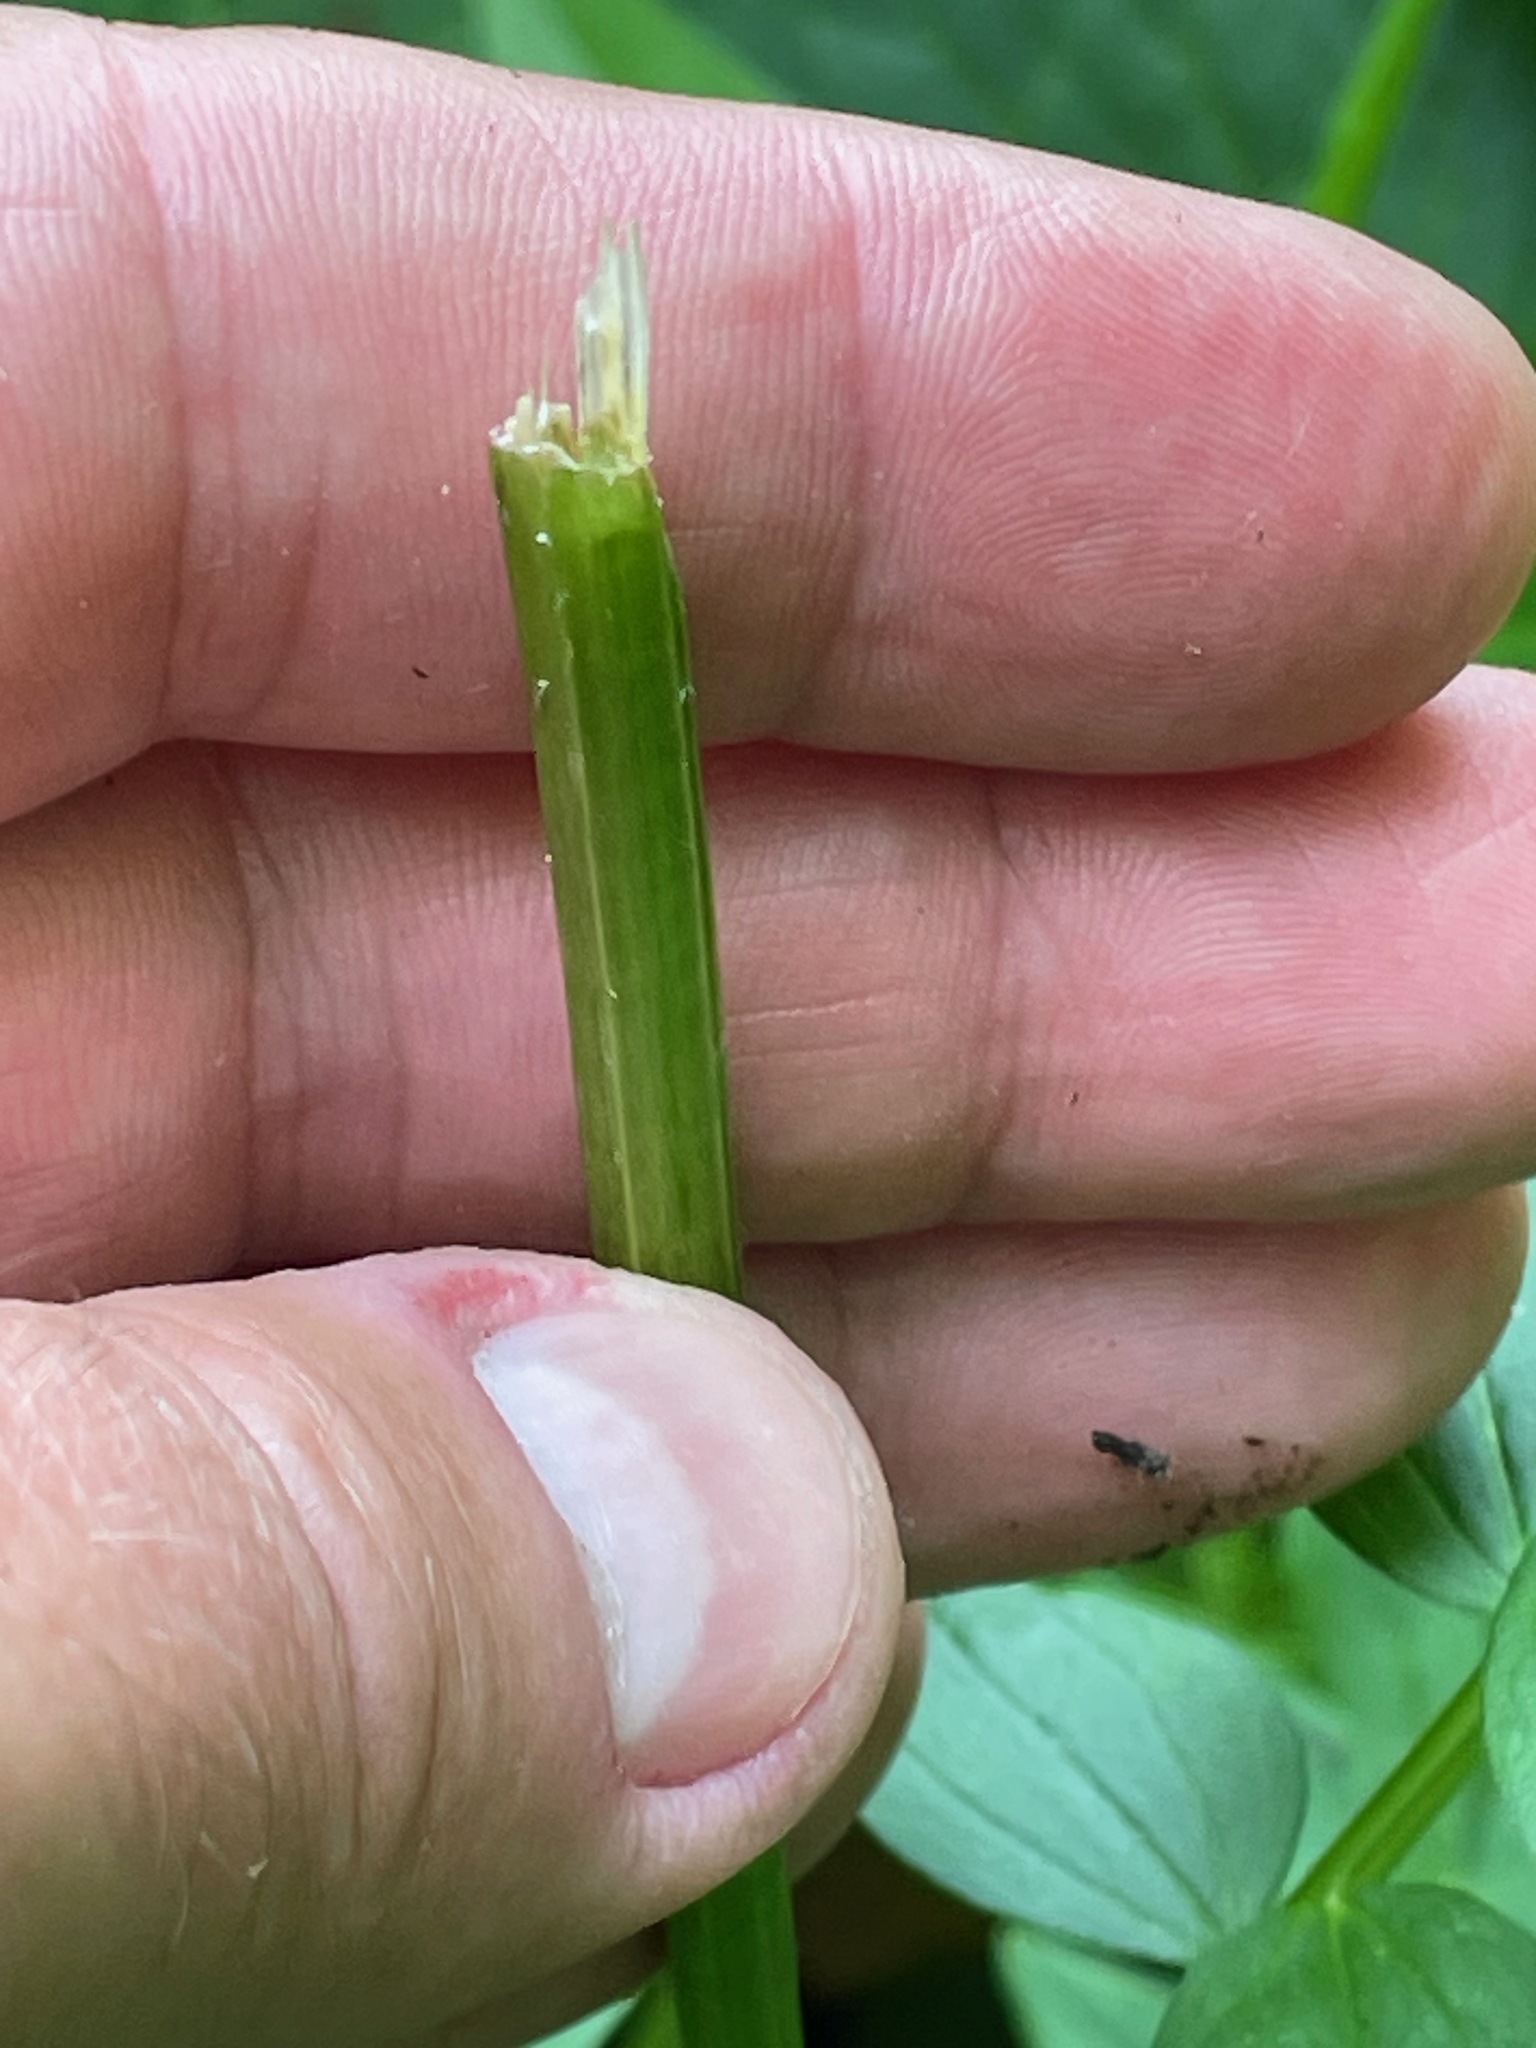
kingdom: Plantae
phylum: Tracheophyta
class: Magnoliopsida
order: Ericales
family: Polemoniaceae
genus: Polemonium
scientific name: Polemonium vanbruntiae
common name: Bog jacob's-ladder
